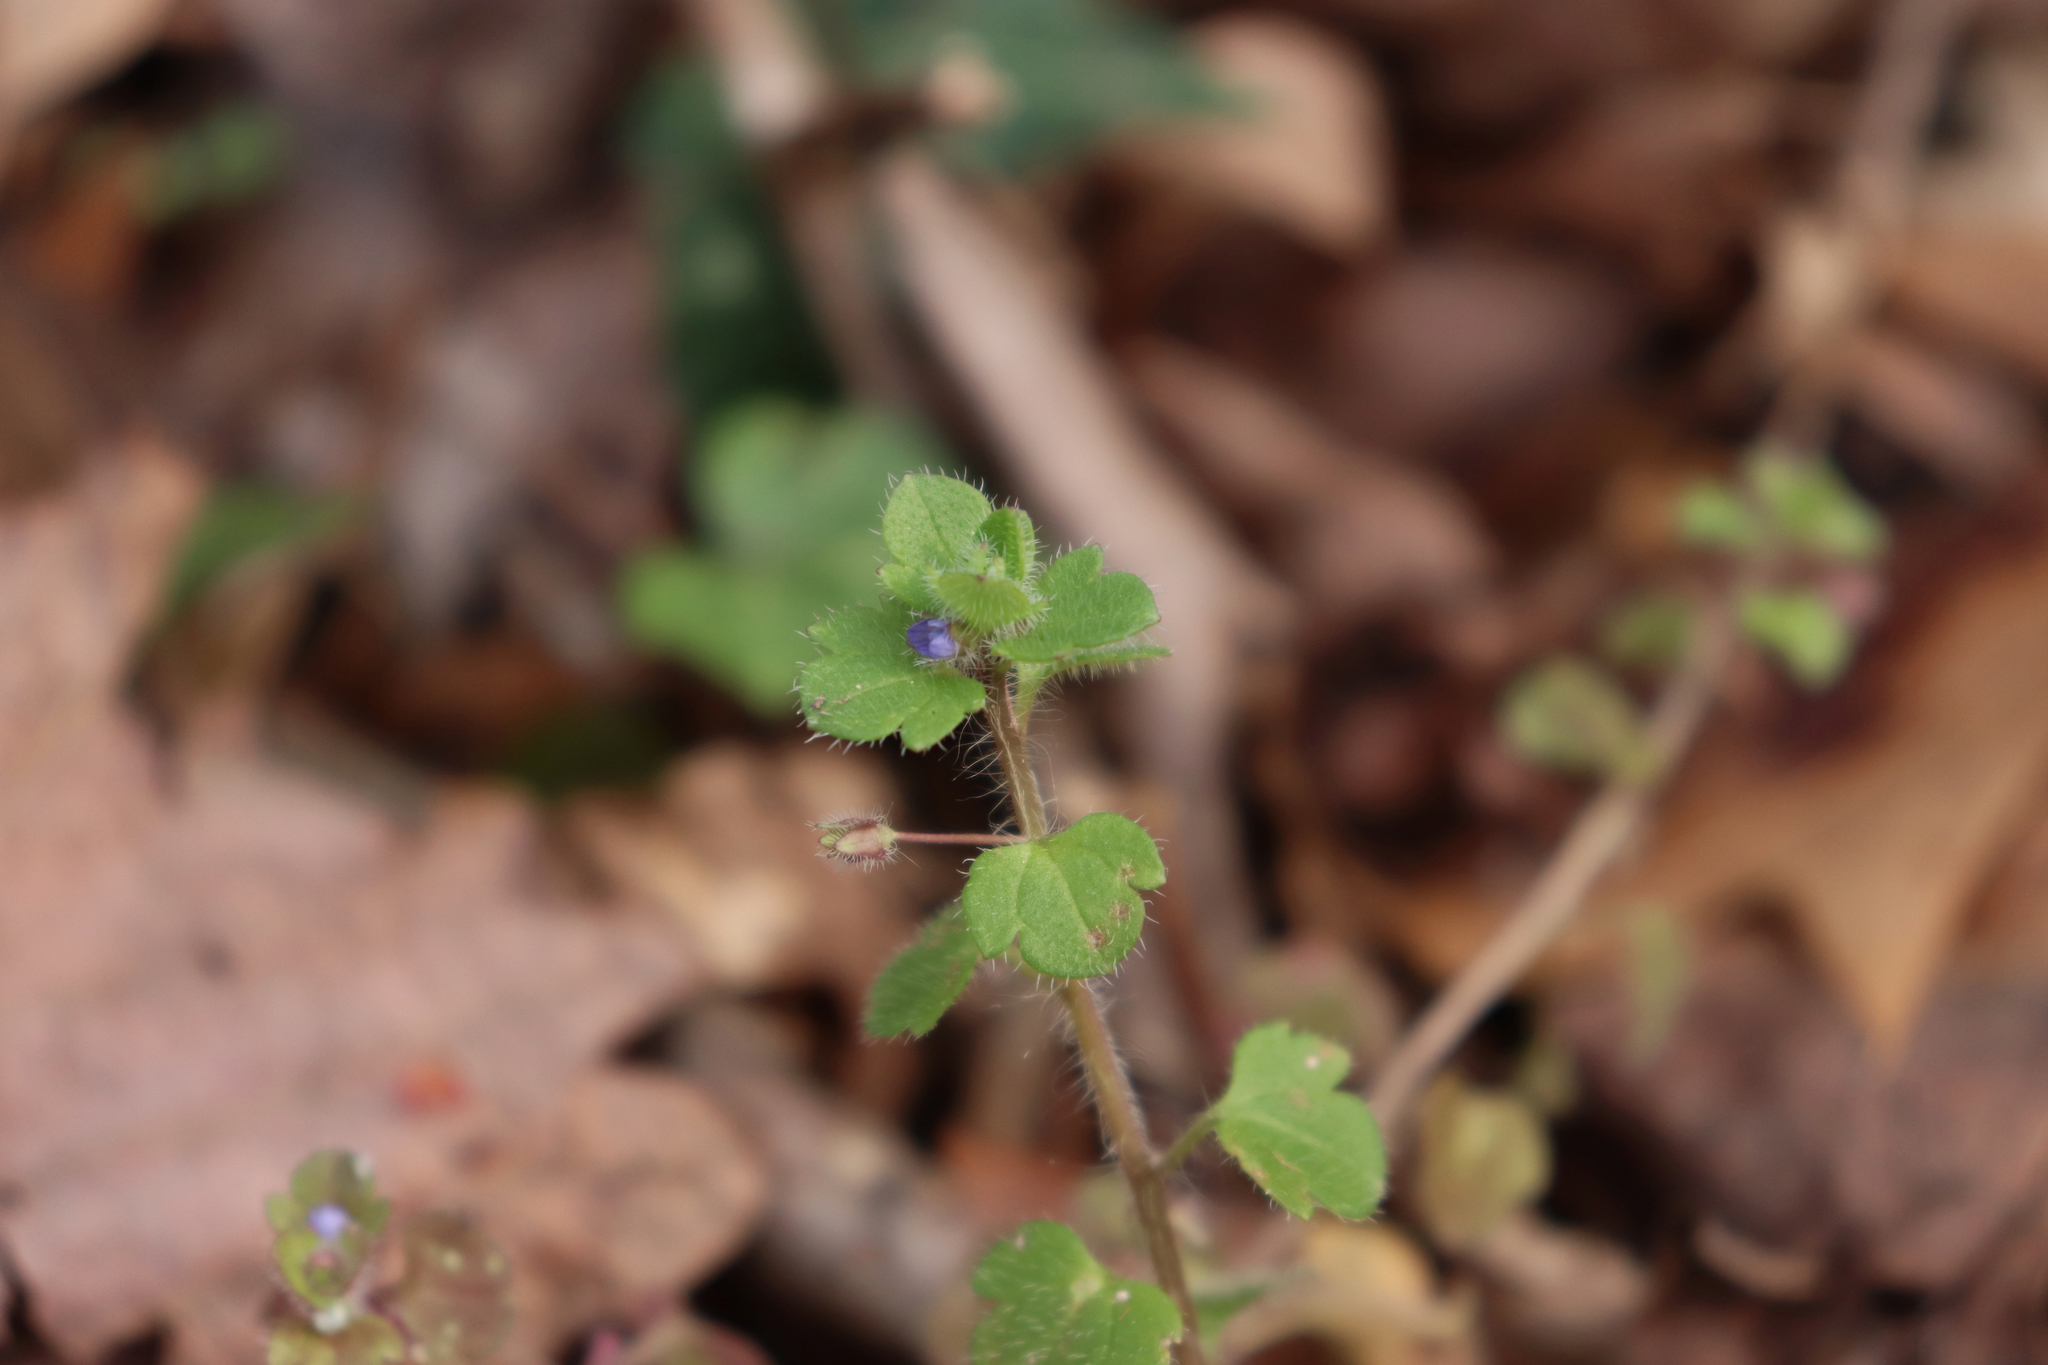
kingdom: Plantae
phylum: Tracheophyta
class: Magnoliopsida
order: Lamiales
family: Plantaginaceae
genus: Veronica
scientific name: Veronica hederifolia
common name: Ivy-leaved speedwell
